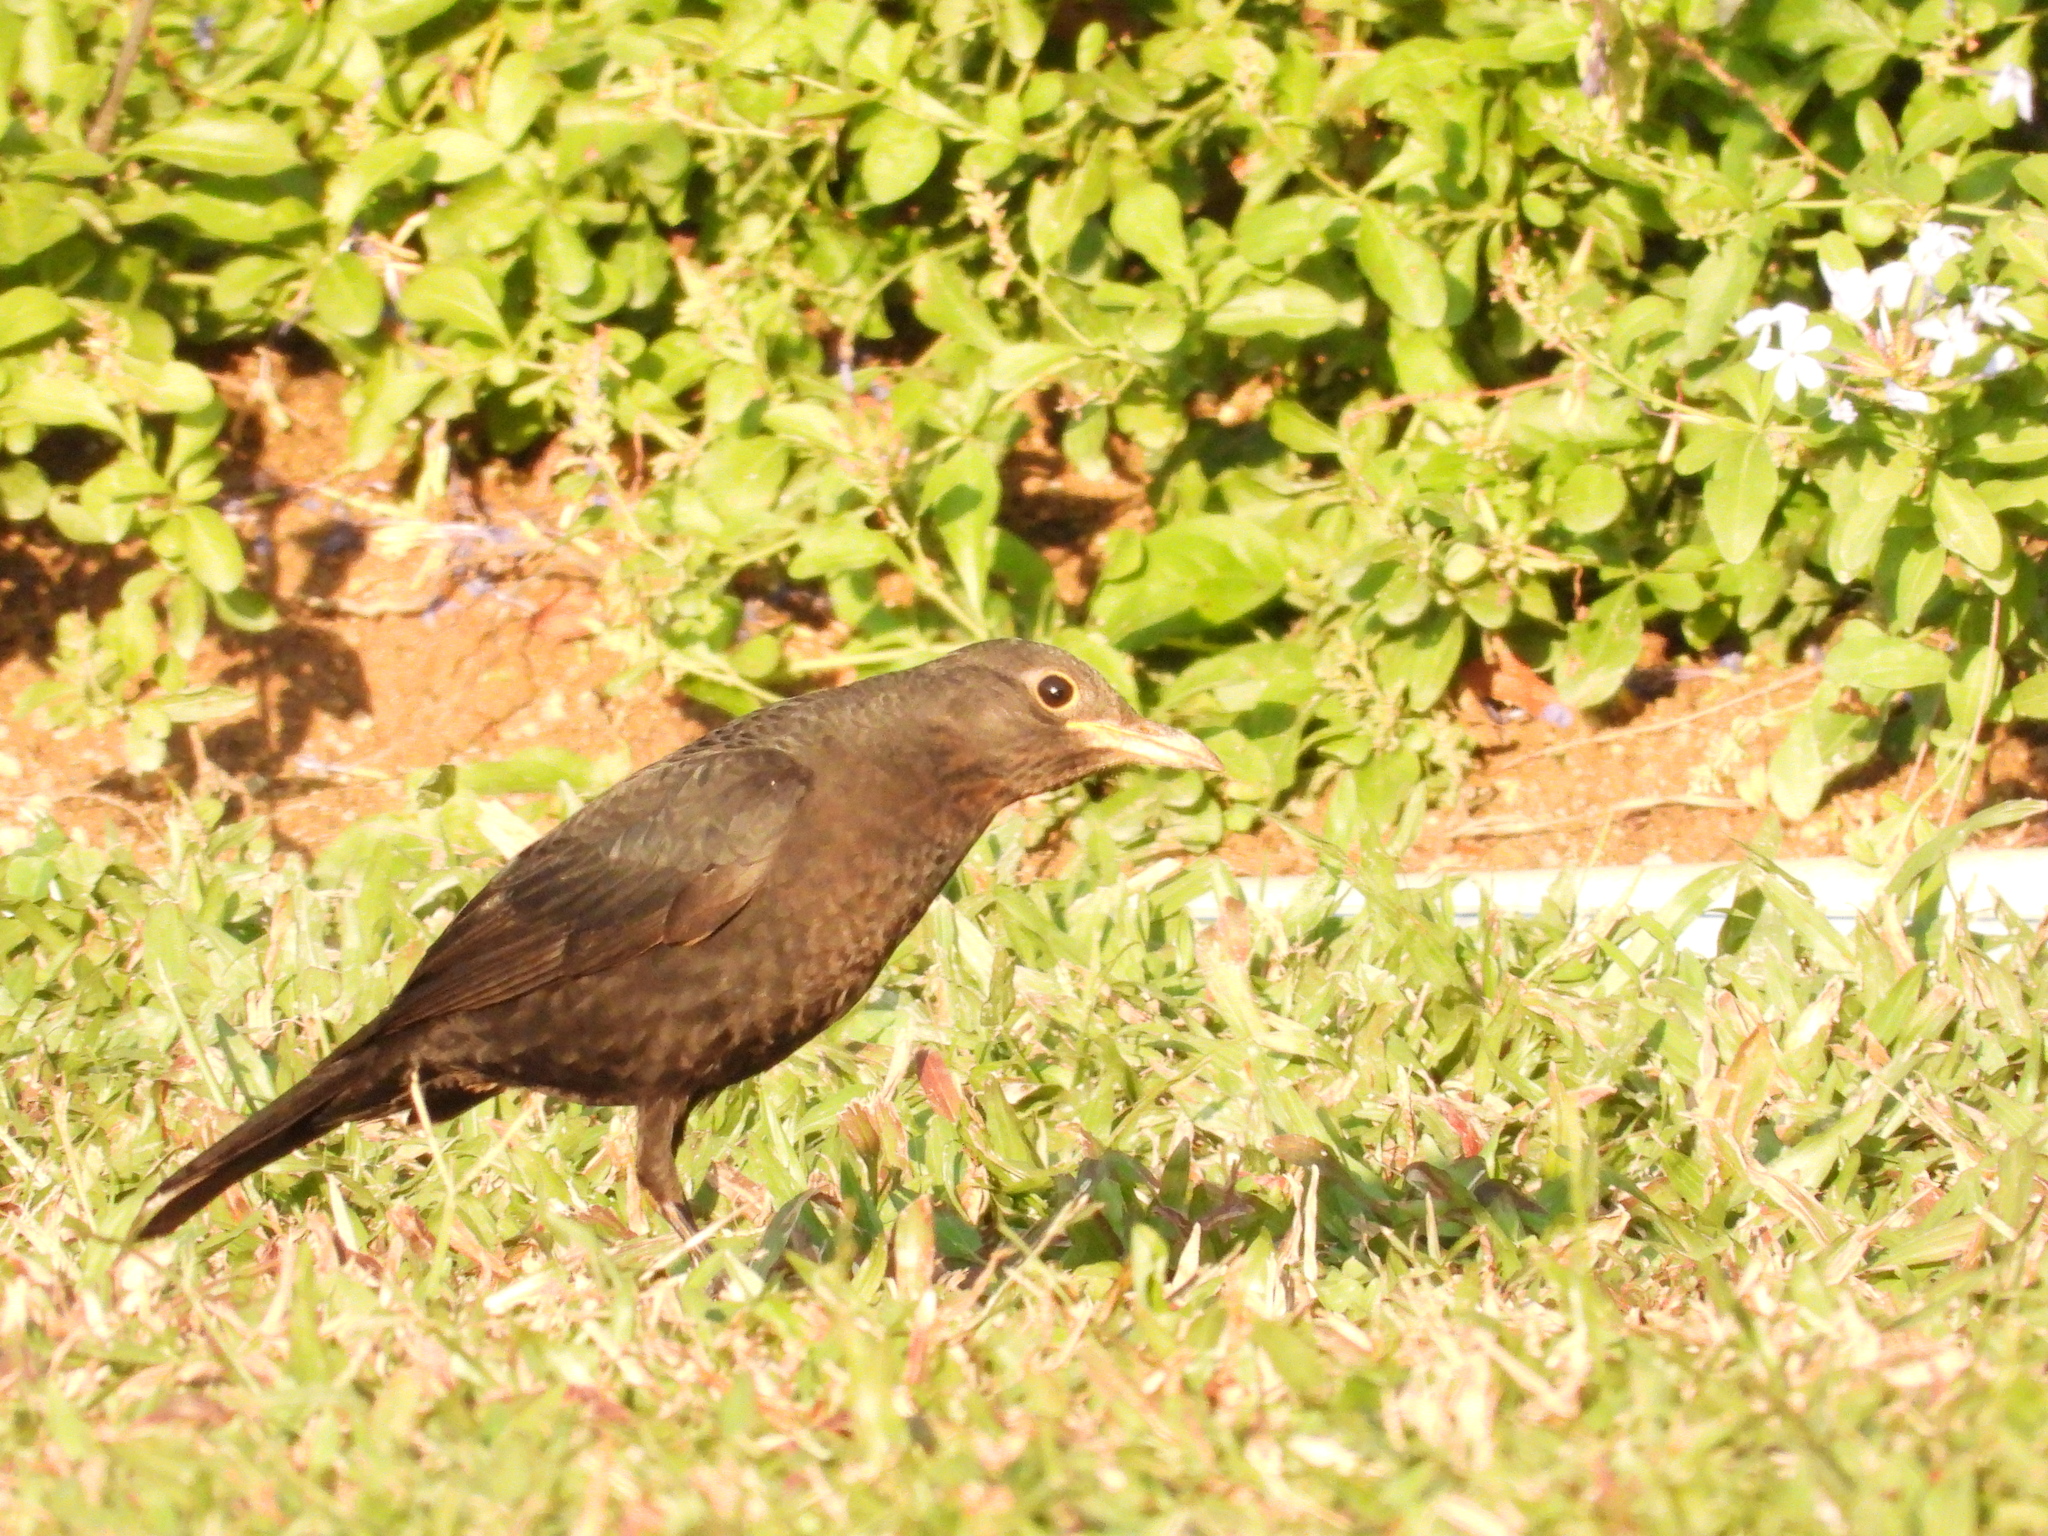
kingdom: Animalia
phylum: Chordata
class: Aves
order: Passeriformes
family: Turdidae
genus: Turdus
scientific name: Turdus mandarinus
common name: Chinese blackbird
